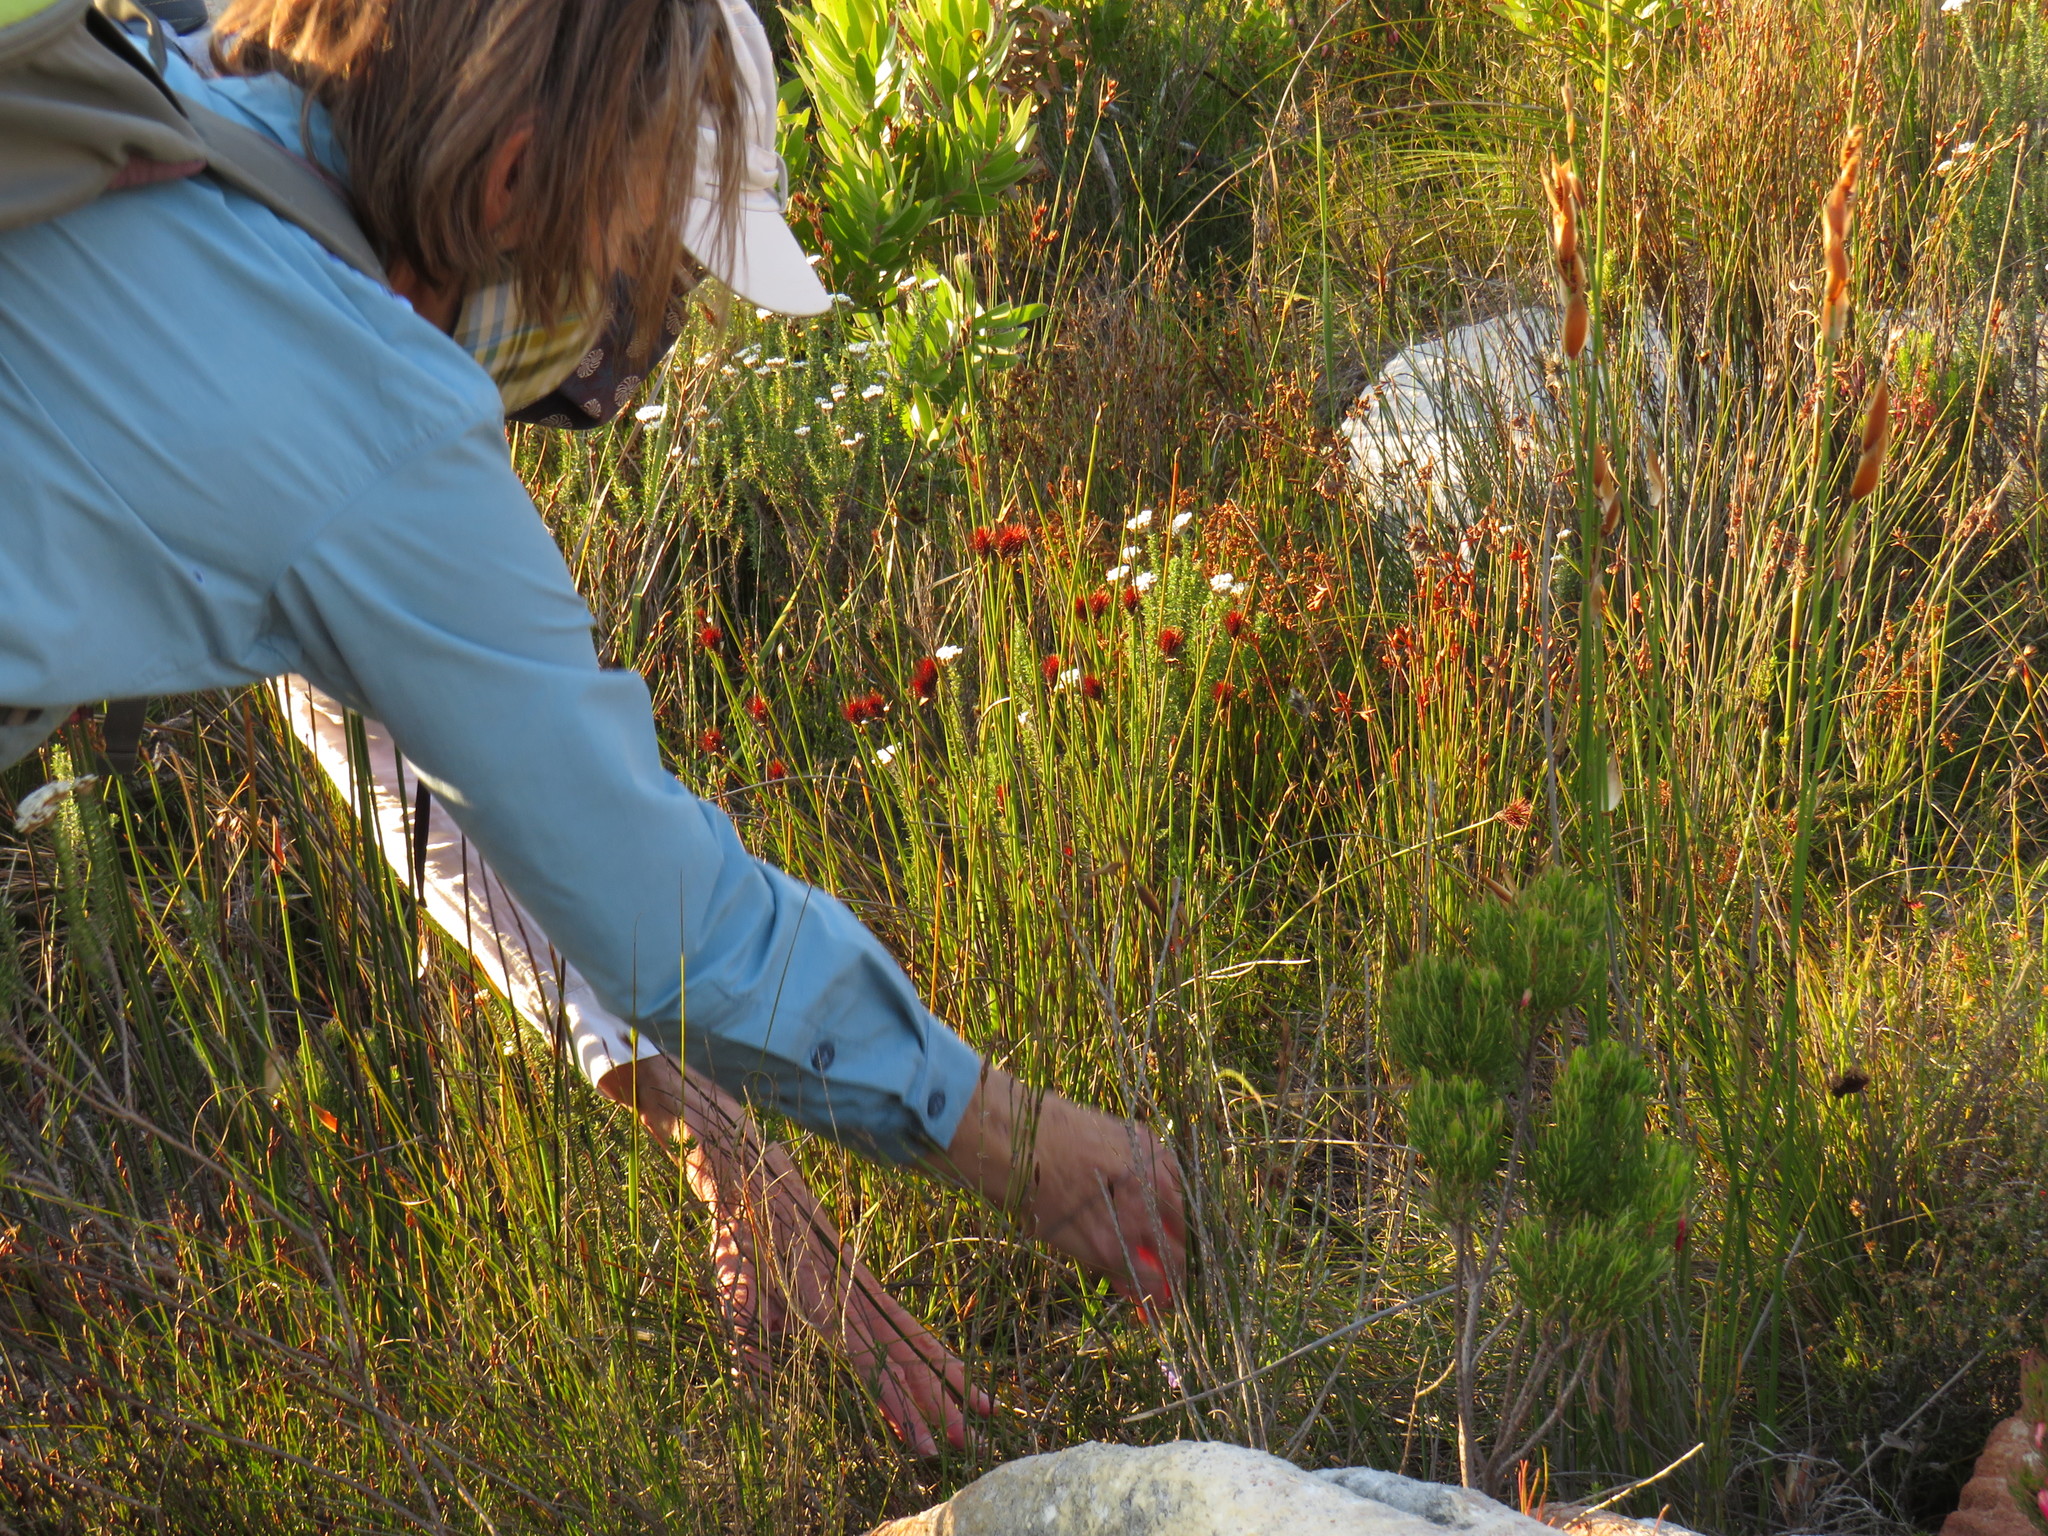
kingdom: Plantae
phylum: Tracheophyta
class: Liliopsida
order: Poales
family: Restionaceae
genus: Hypodiscus
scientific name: Hypodiscus aristatus
